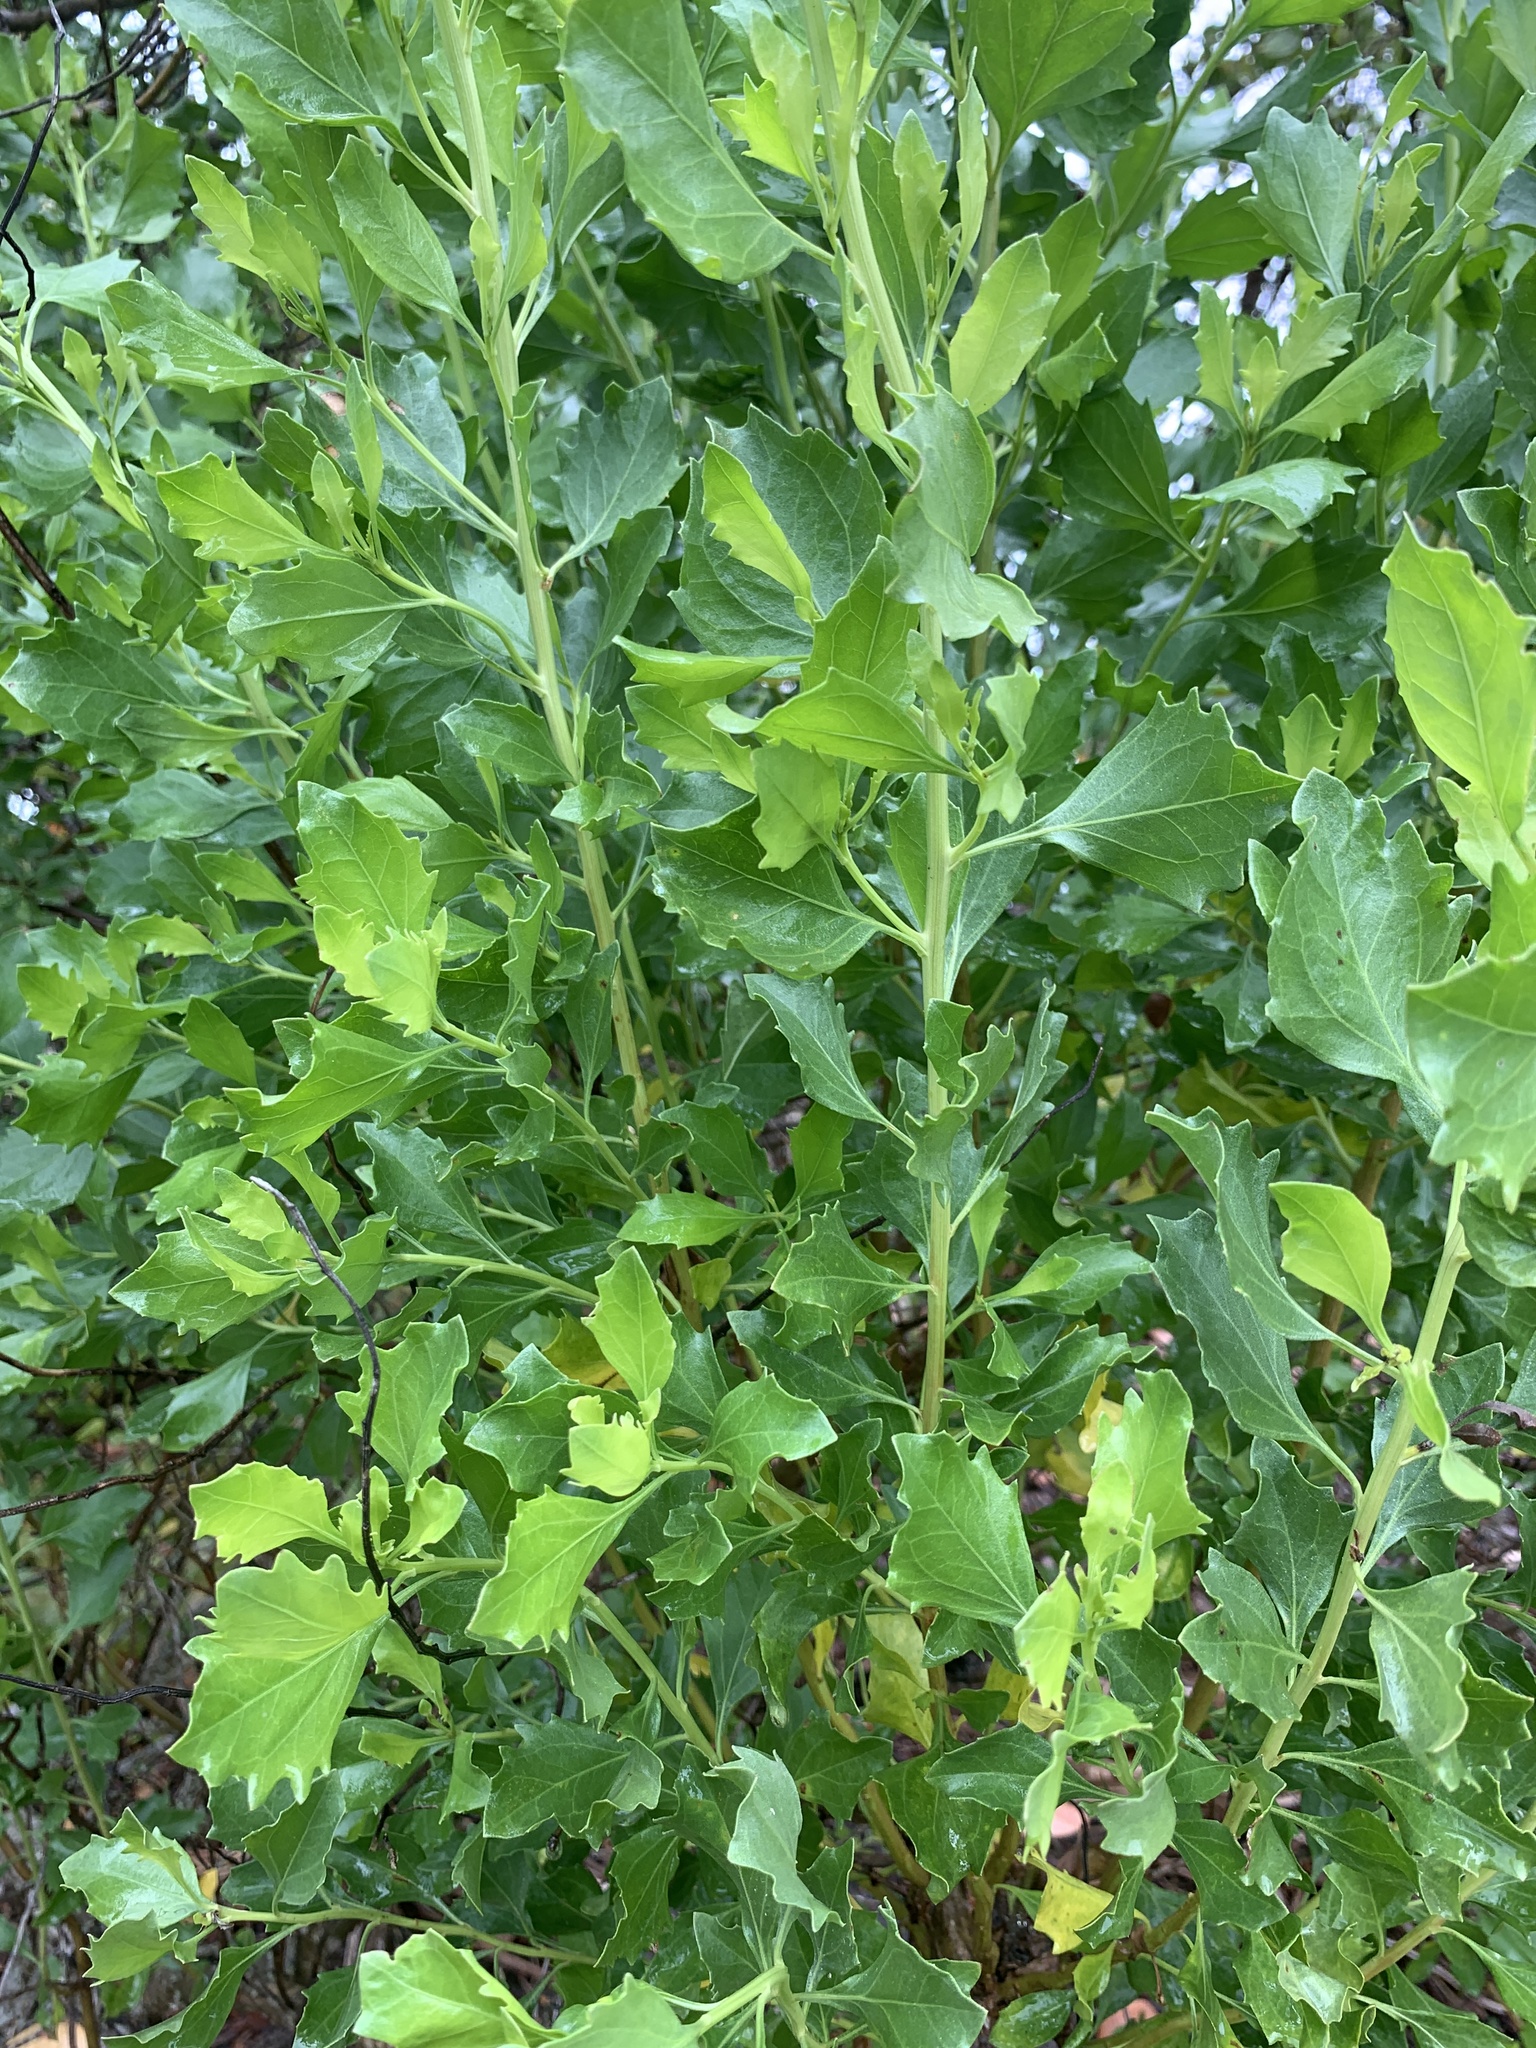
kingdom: Plantae
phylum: Tracheophyta
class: Magnoliopsida
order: Asterales
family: Asteraceae
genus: Baccharis
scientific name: Baccharis halimifolia
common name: Eastern baccharis
